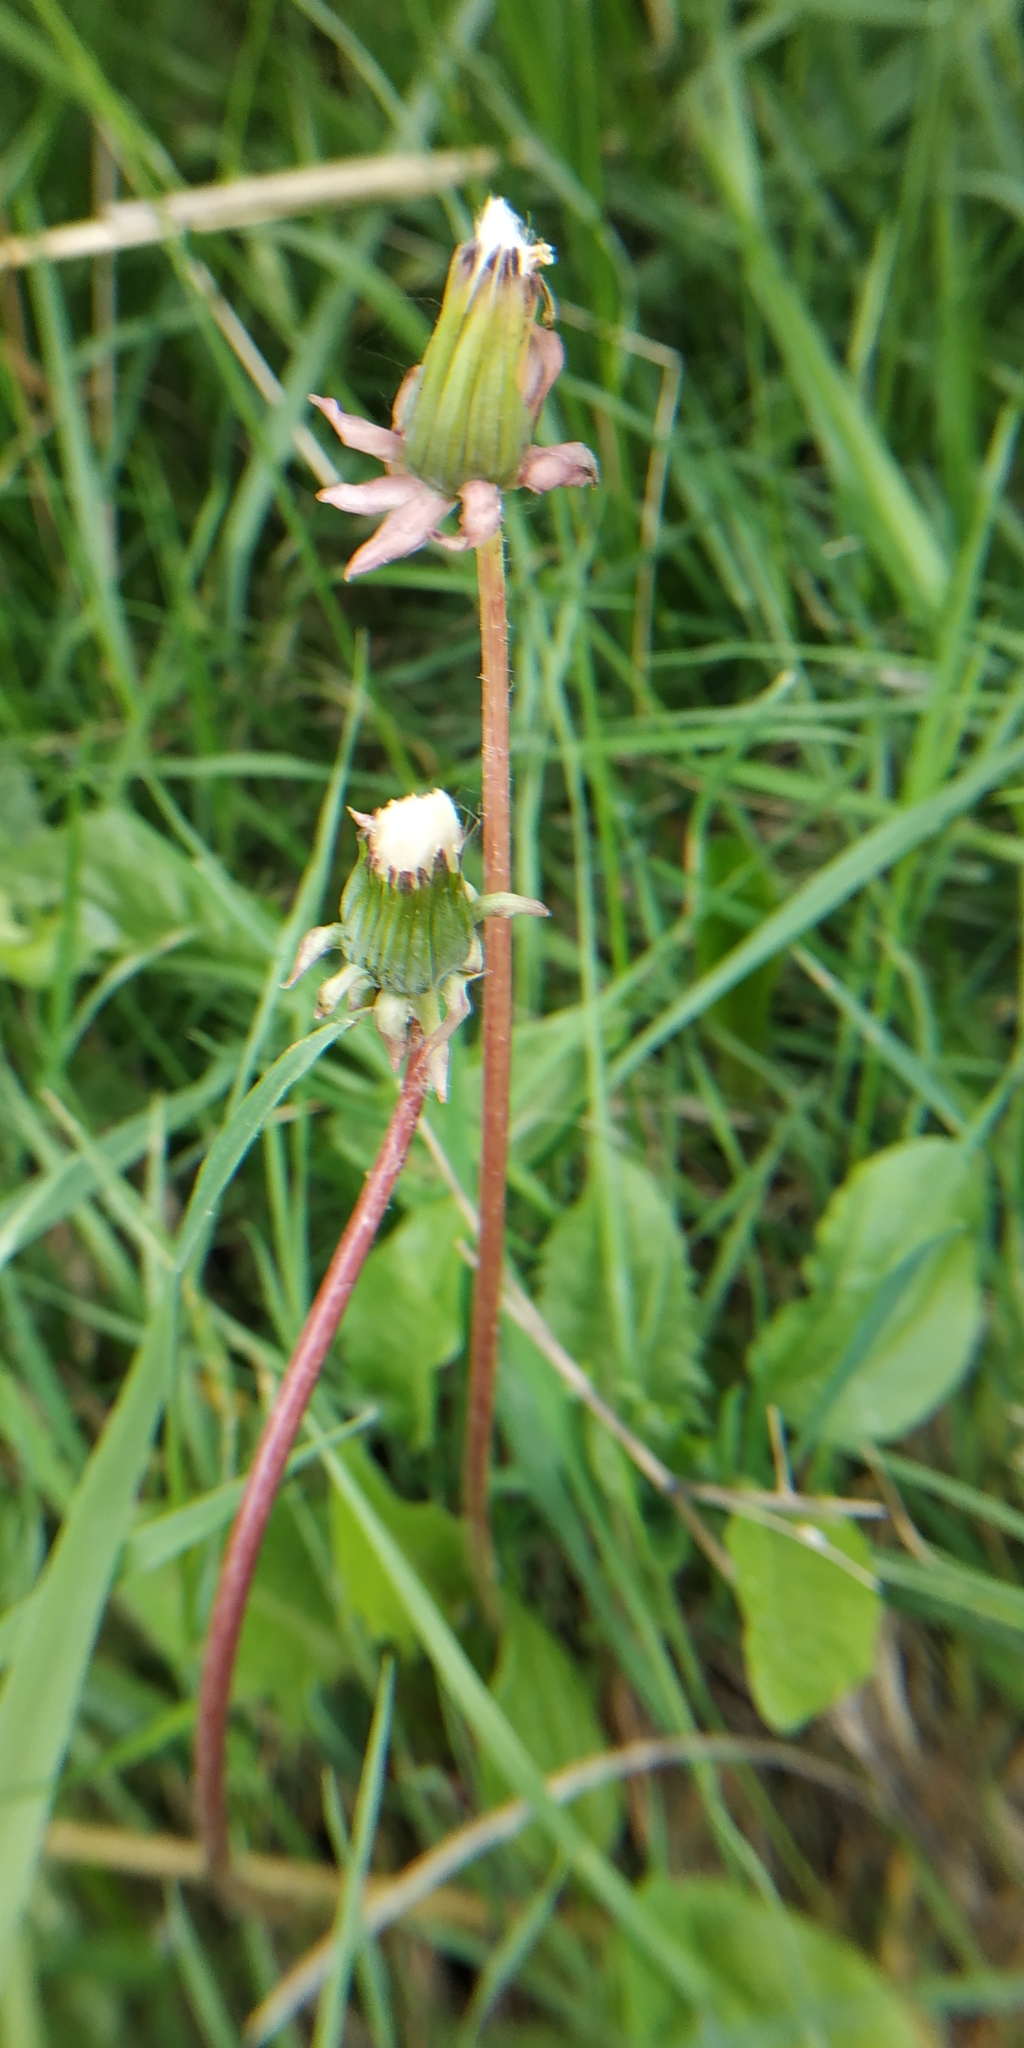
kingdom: Plantae
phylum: Tracheophyta
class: Magnoliopsida
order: Asterales
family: Asteraceae
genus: Taraxacum
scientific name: Taraxacum officinale
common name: Common dandelion
